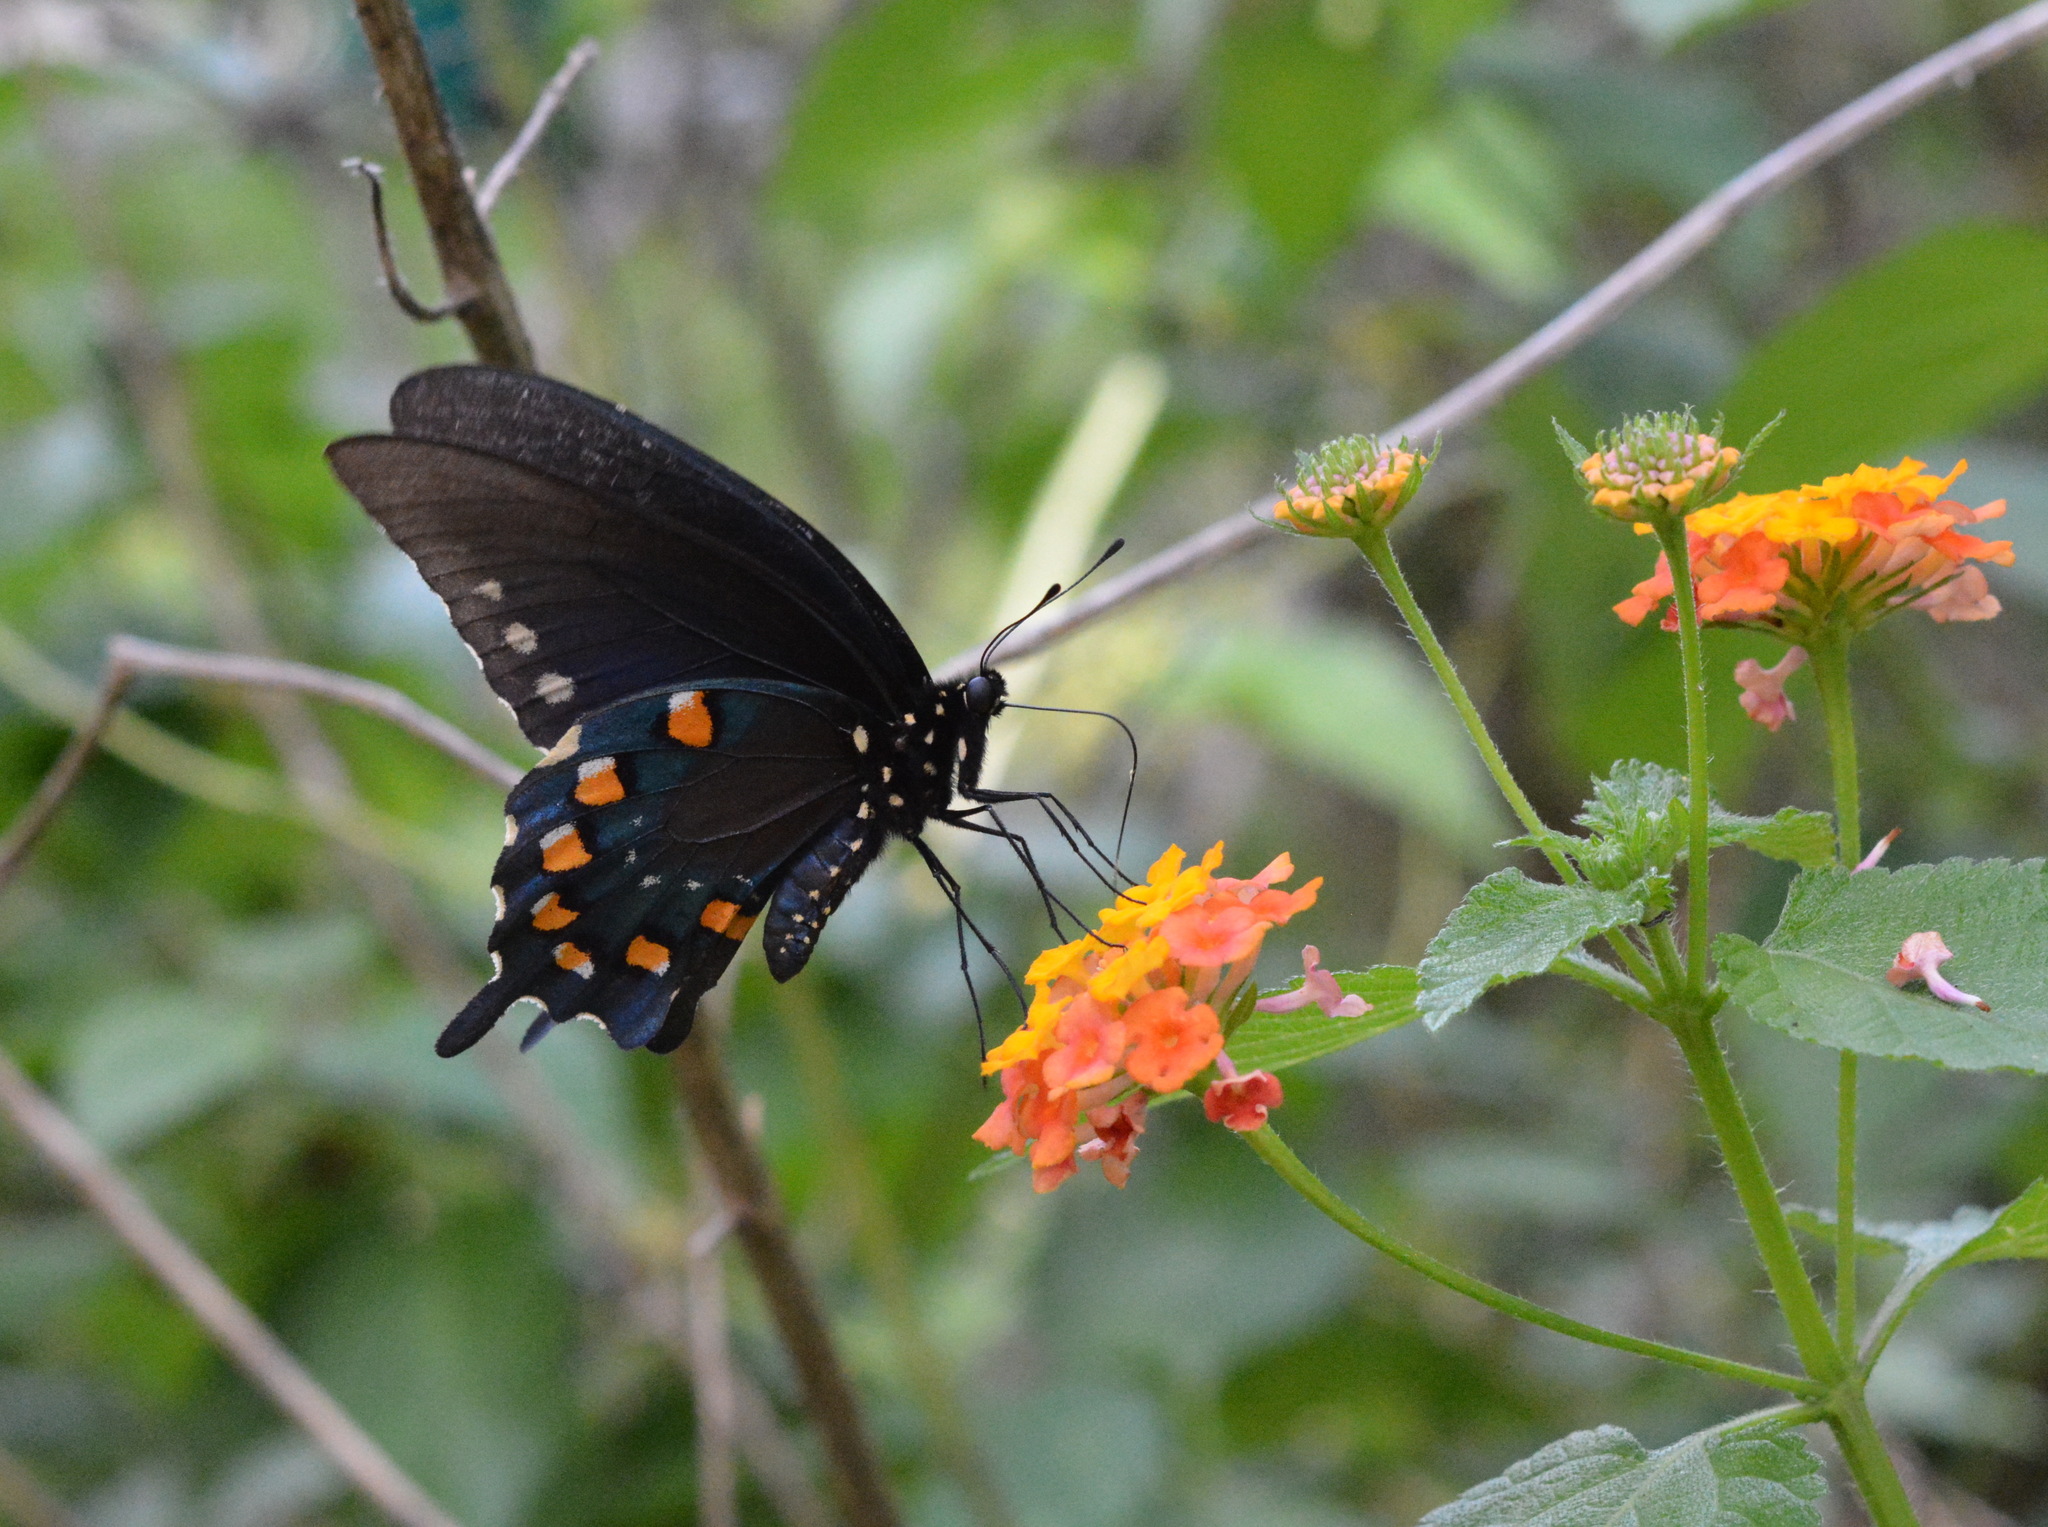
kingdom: Animalia
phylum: Arthropoda
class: Insecta
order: Lepidoptera
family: Papilionidae
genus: Battus
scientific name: Battus philenor
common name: Pipevine swallowtail
